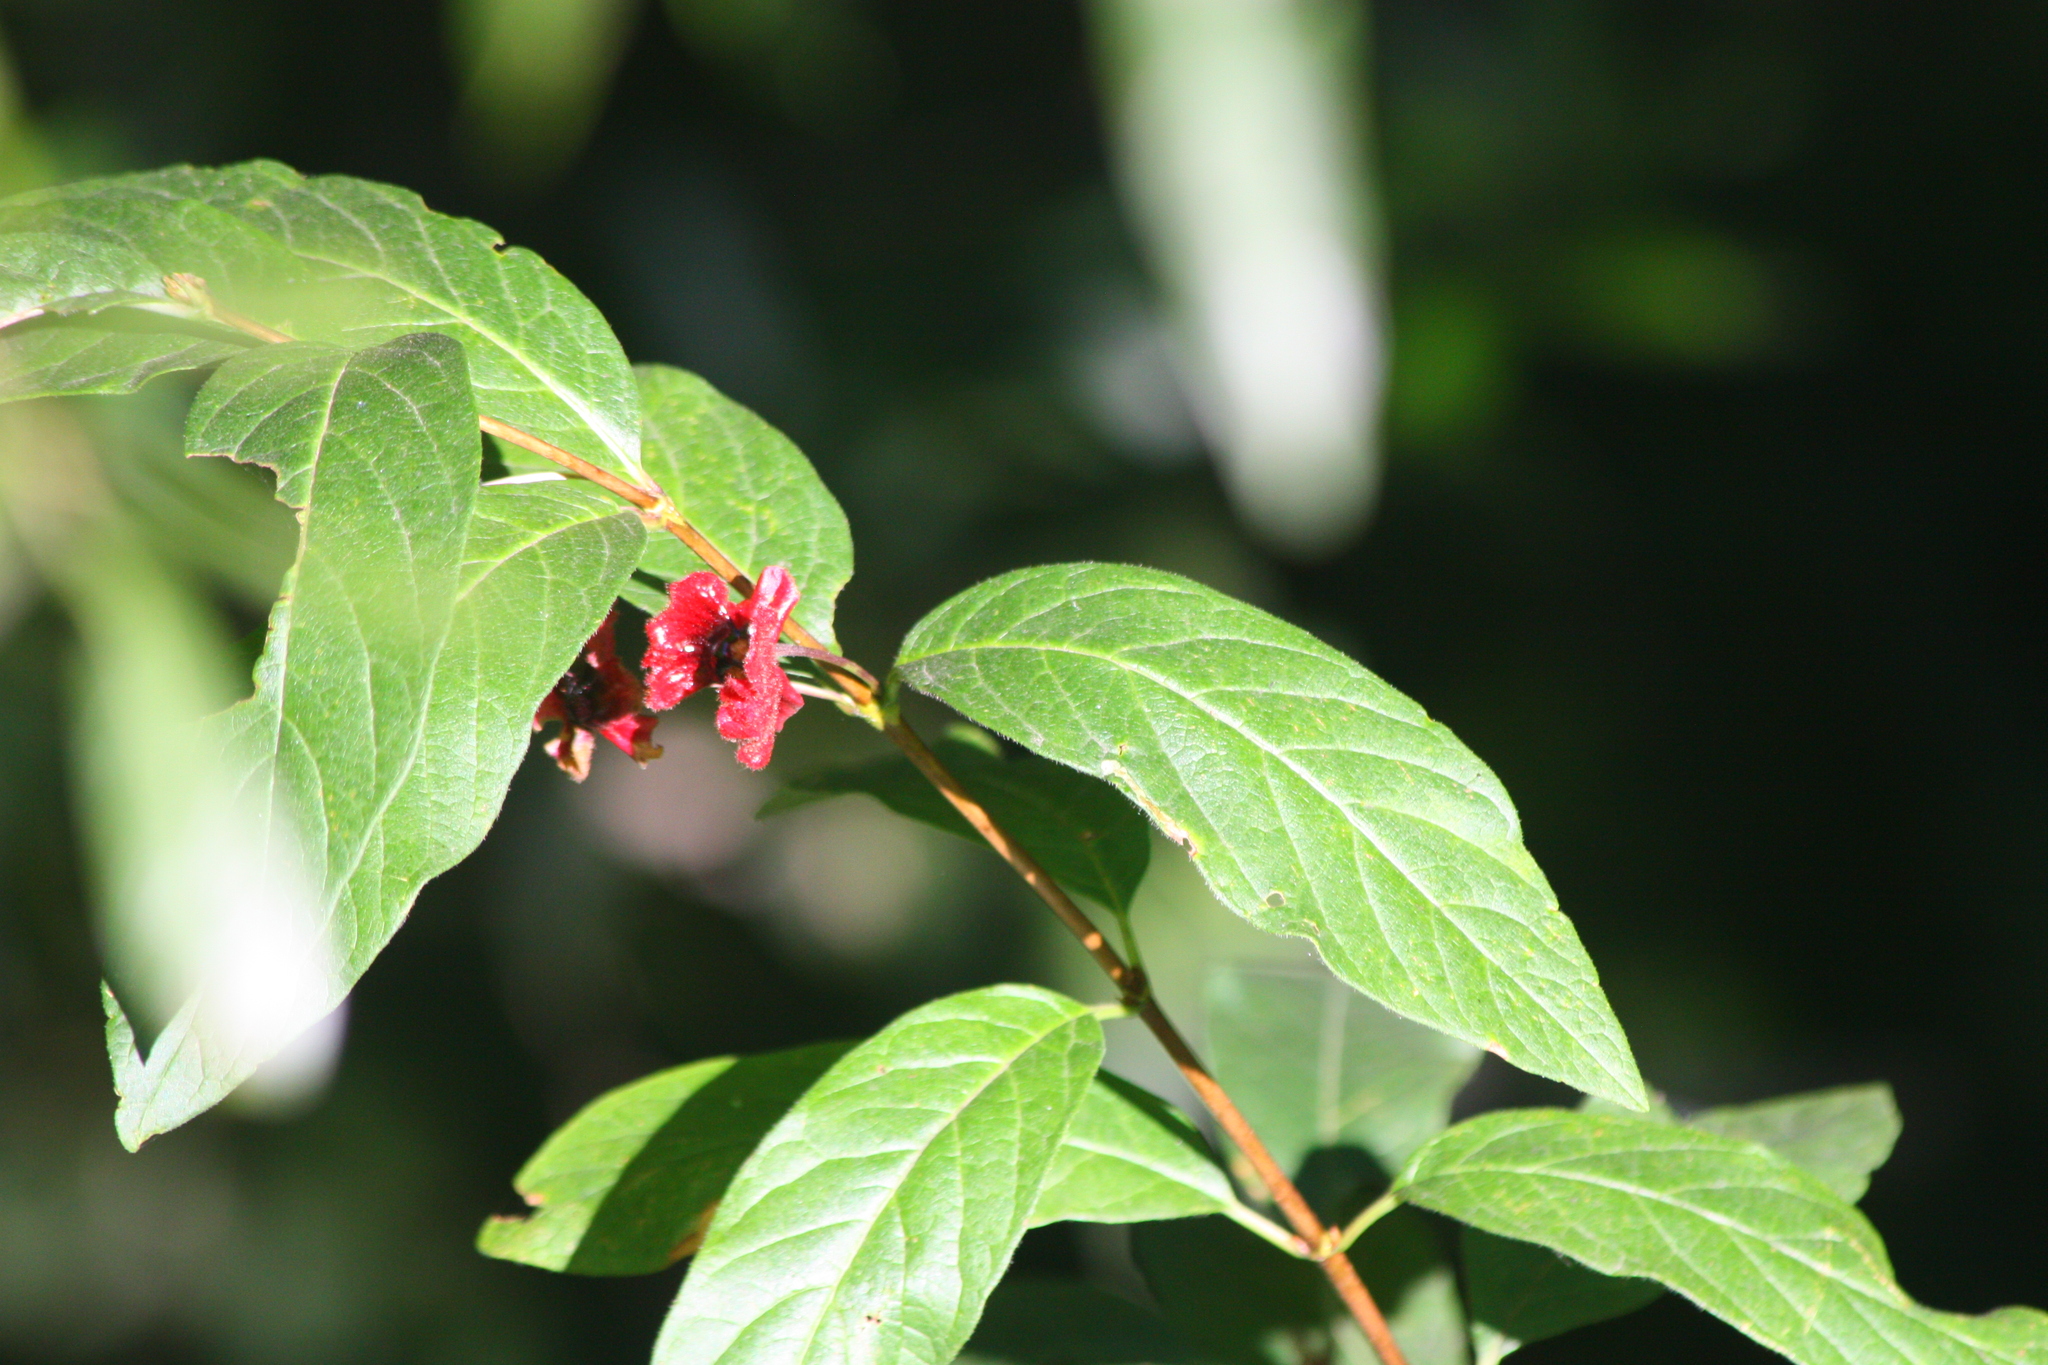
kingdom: Plantae
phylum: Tracheophyta
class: Magnoliopsida
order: Dipsacales
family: Caprifoliaceae
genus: Lonicera
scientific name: Lonicera involucrata
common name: Californian honeysuckle
